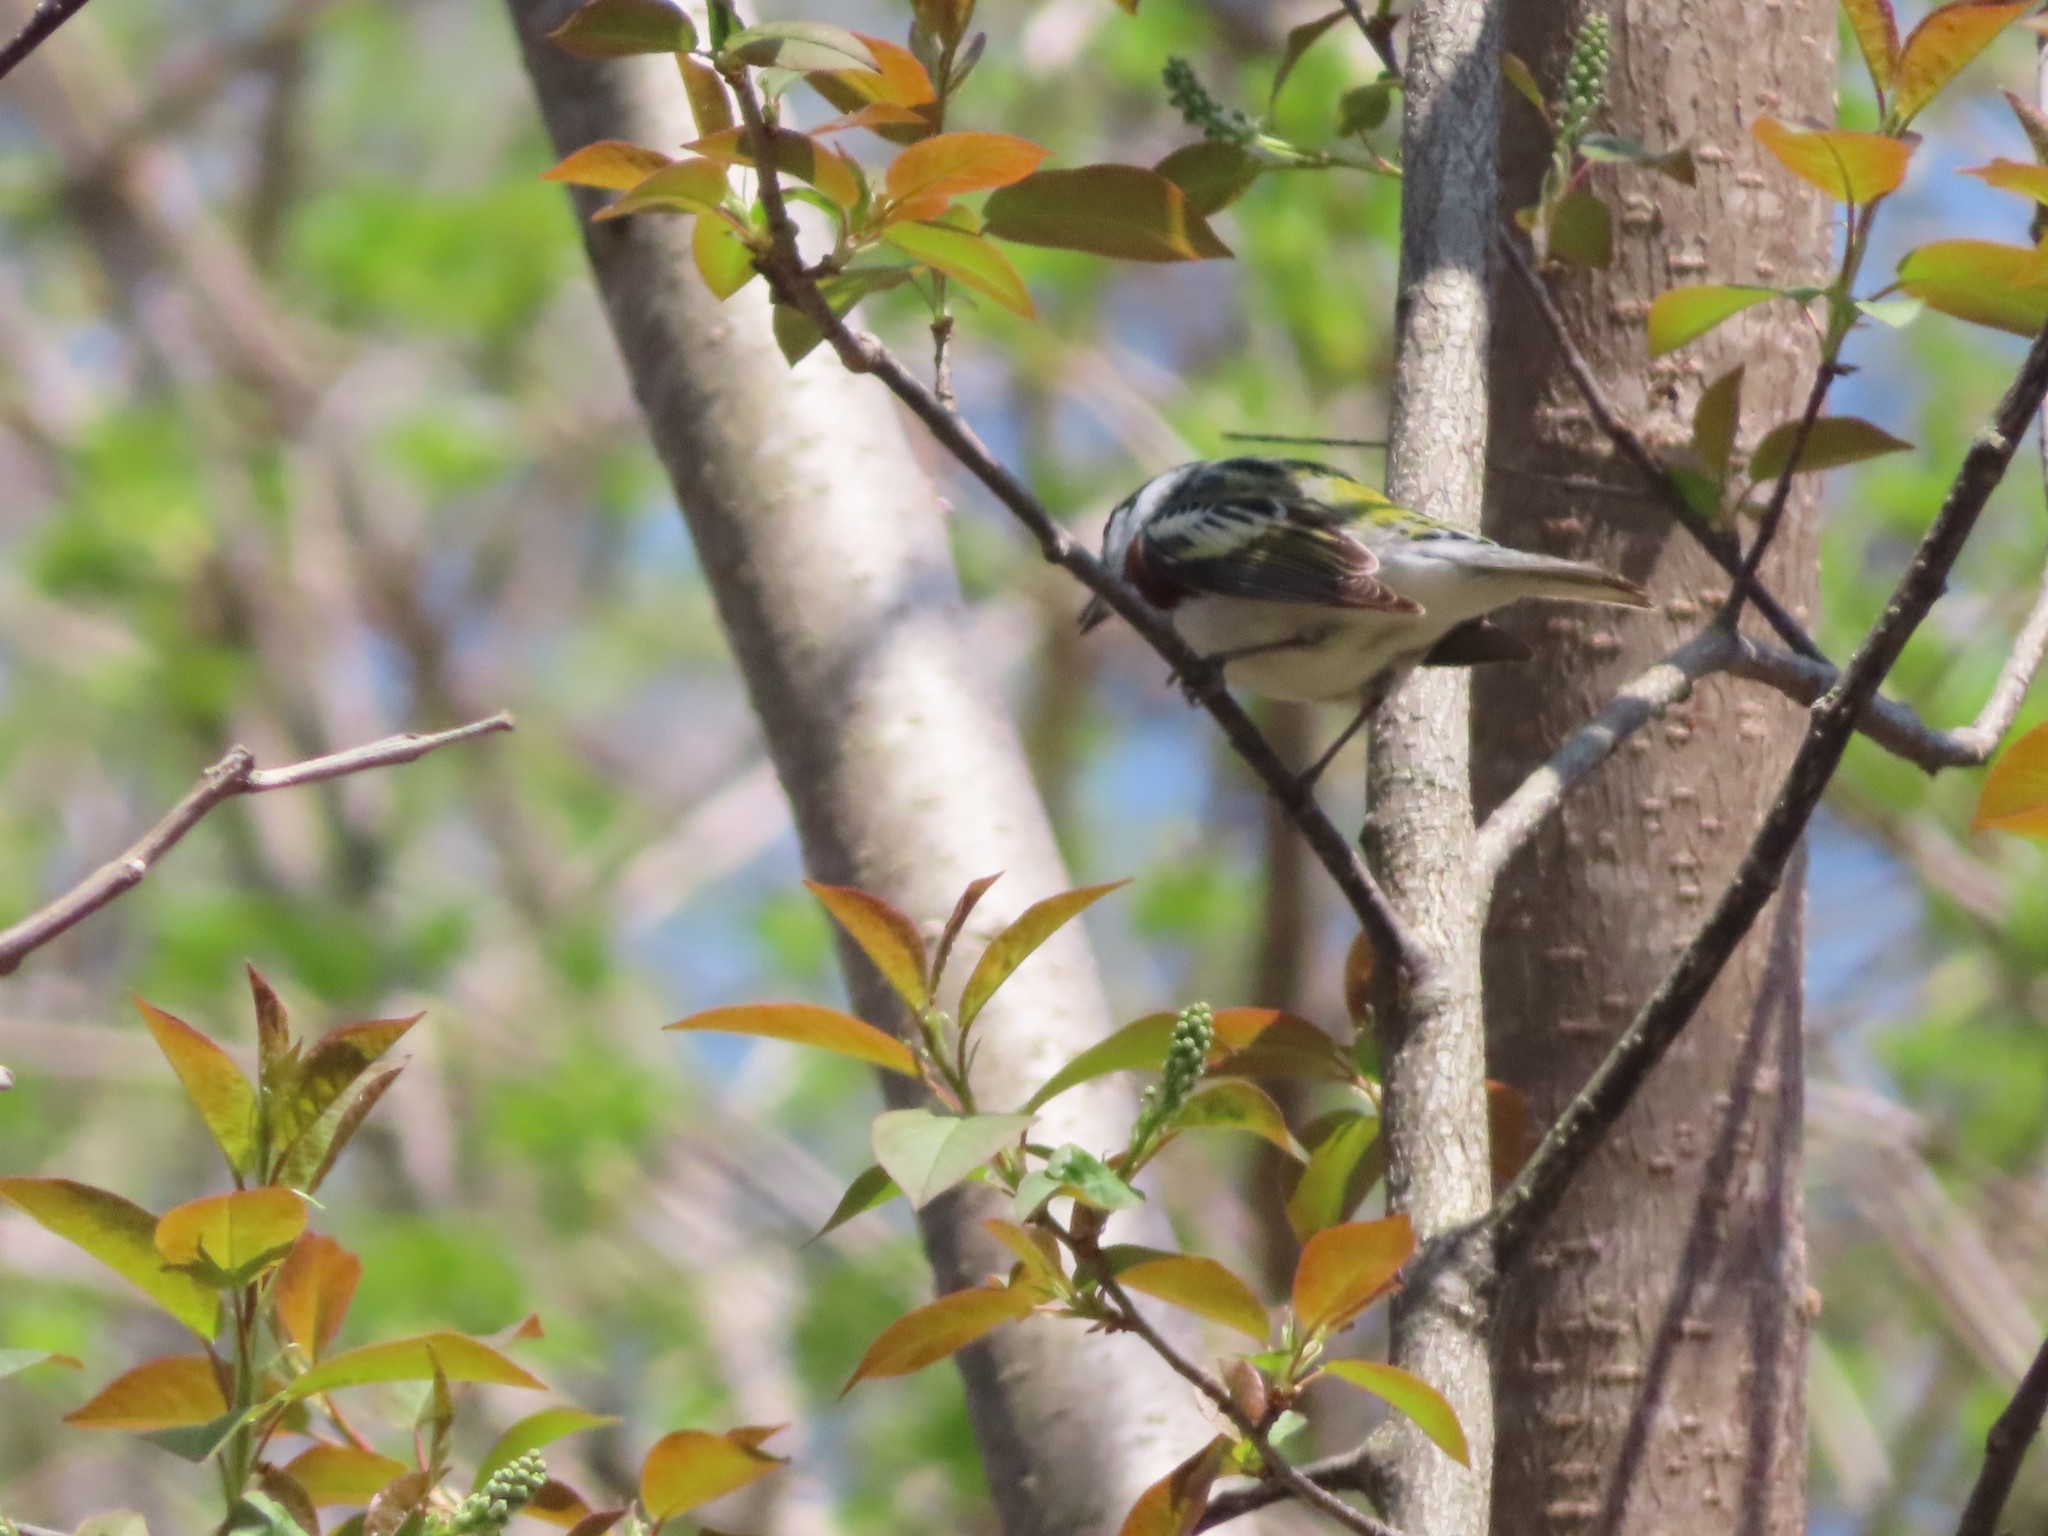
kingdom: Animalia
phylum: Chordata
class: Aves
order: Passeriformes
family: Parulidae
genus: Setophaga
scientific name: Setophaga pensylvanica
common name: Chestnut-sided warbler
